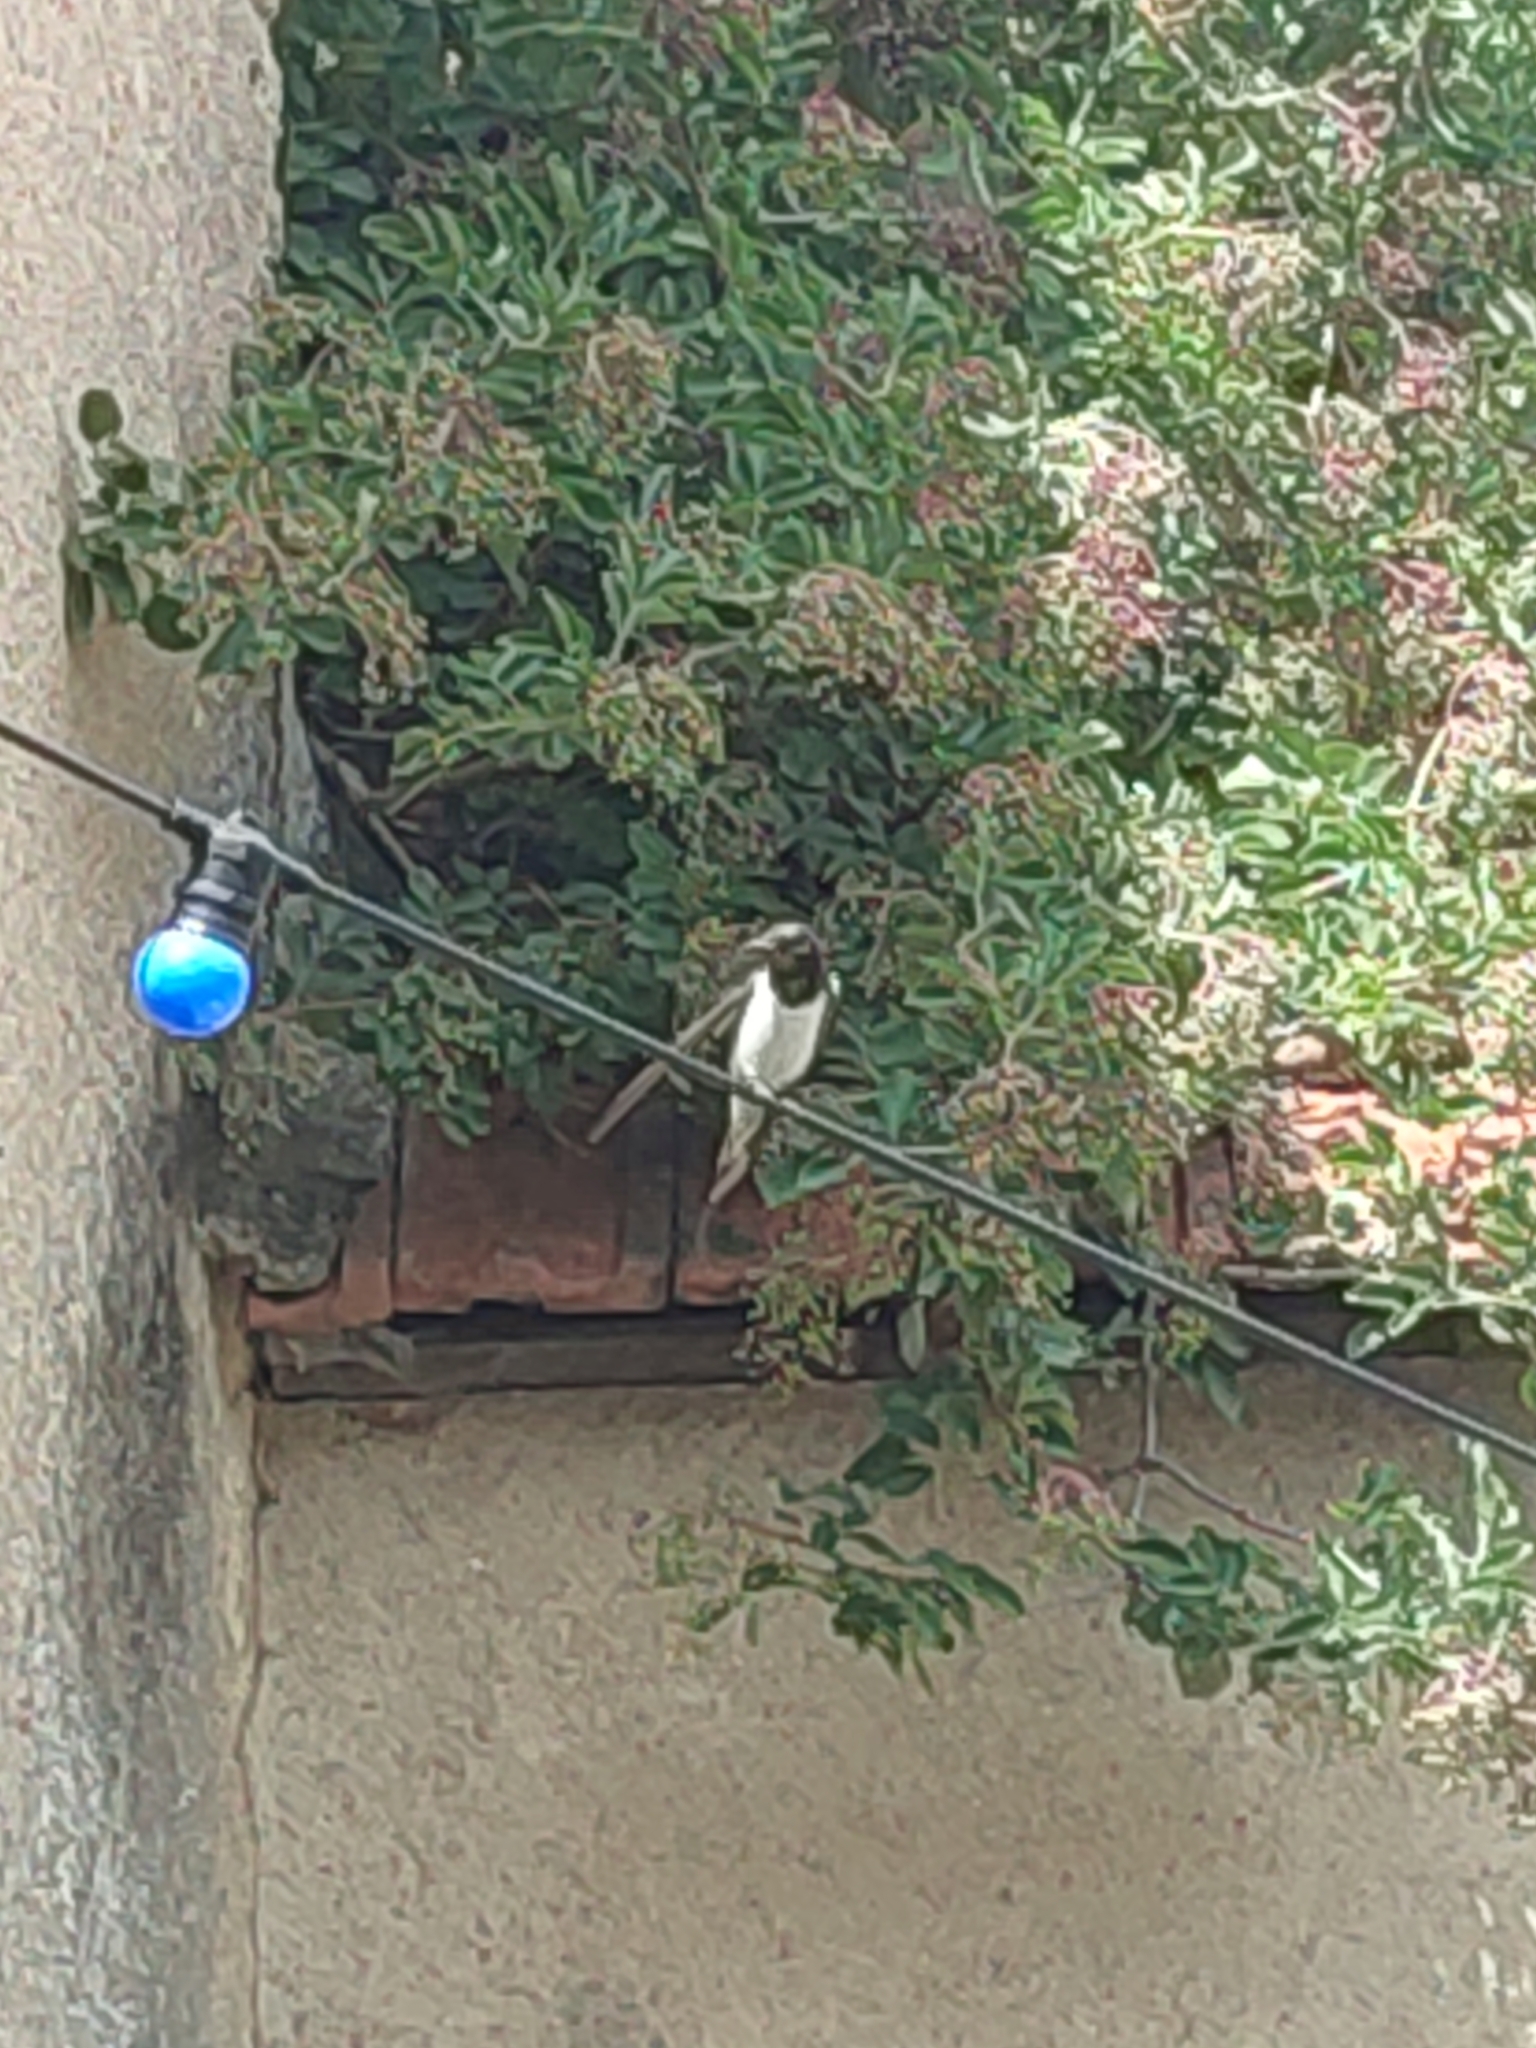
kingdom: Animalia
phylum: Chordata
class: Aves
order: Passeriformes
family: Hirundinidae
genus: Hirundo
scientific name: Hirundo rustica
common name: Barn swallow
